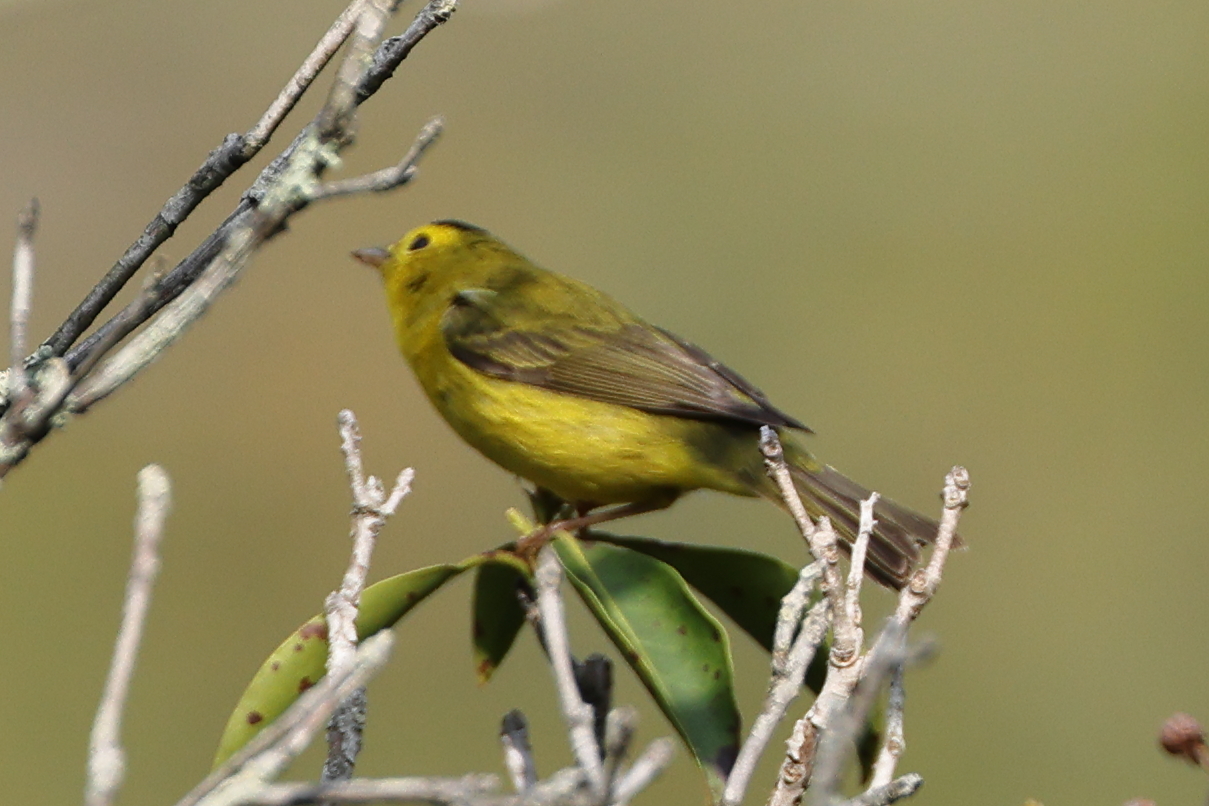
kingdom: Animalia
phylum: Chordata
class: Aves
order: Passeriformes
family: Parulidae
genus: Cardellina
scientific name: Cardellina pusilla
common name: Wilson's warbler
